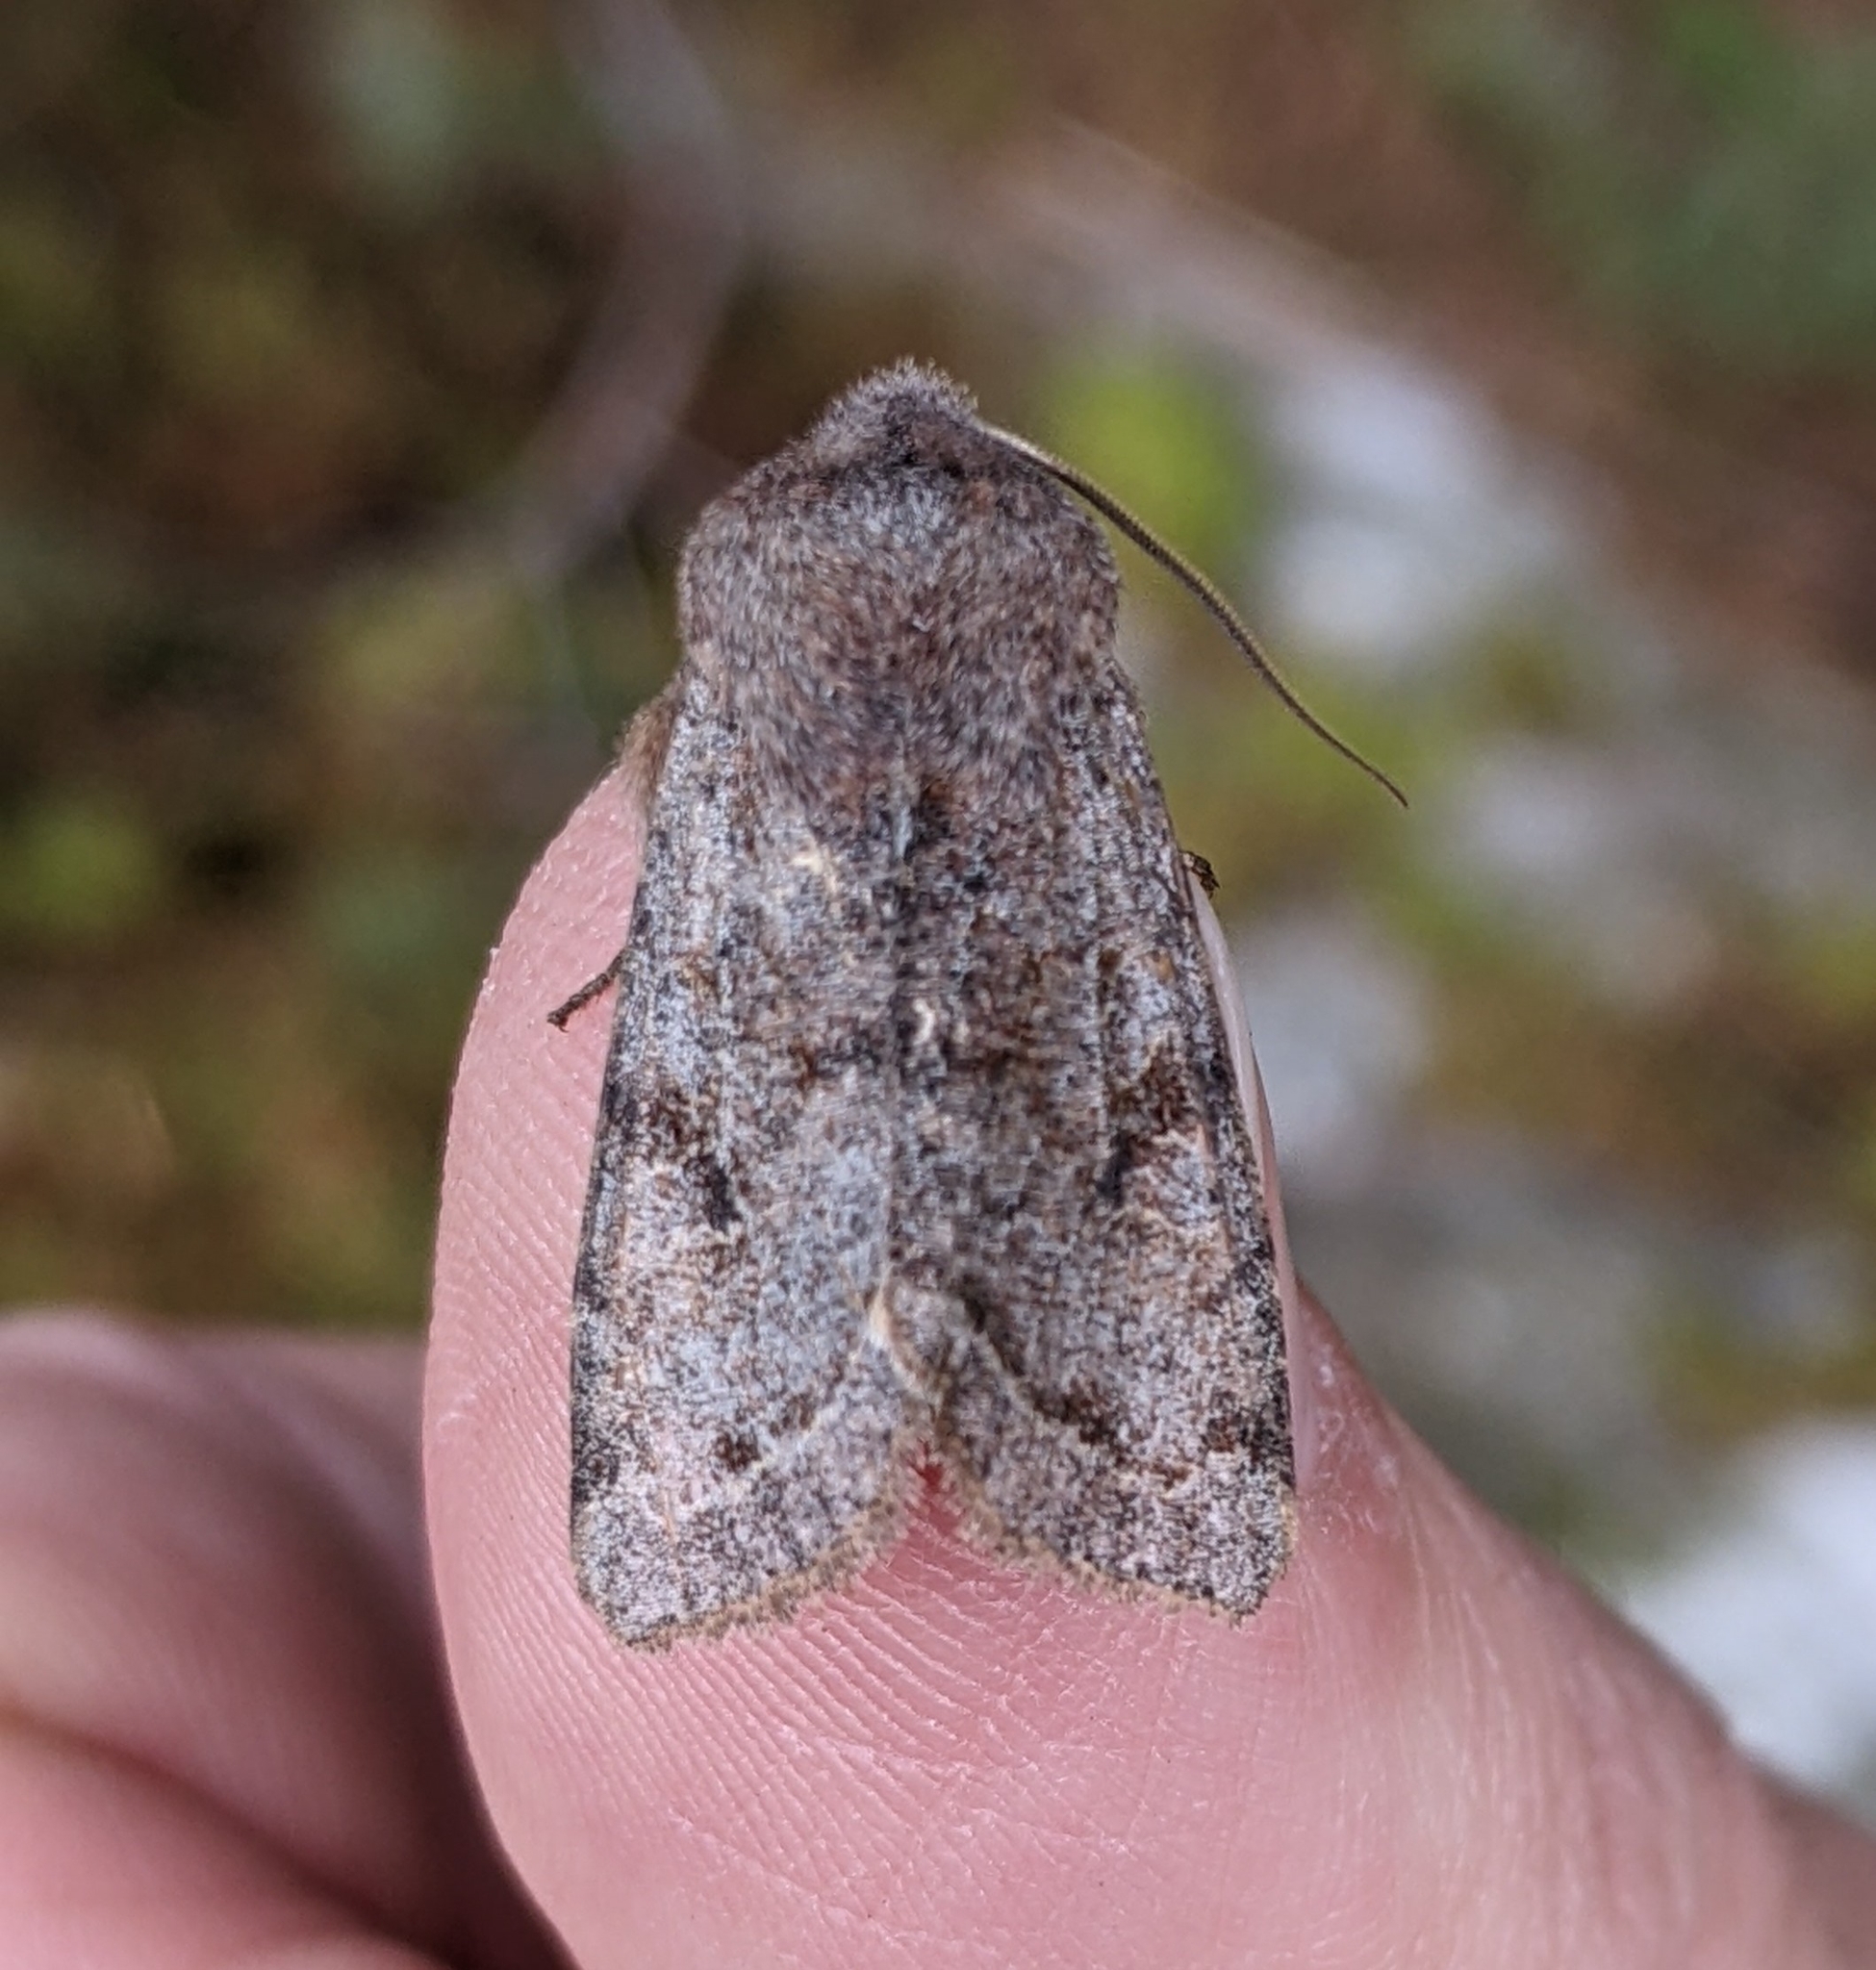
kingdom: Animalia
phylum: Arthropoda
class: Insecta
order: Lepidoptera
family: Noctuidae
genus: Orthosia
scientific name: Orthosia hibisci
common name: Green fruitworm
